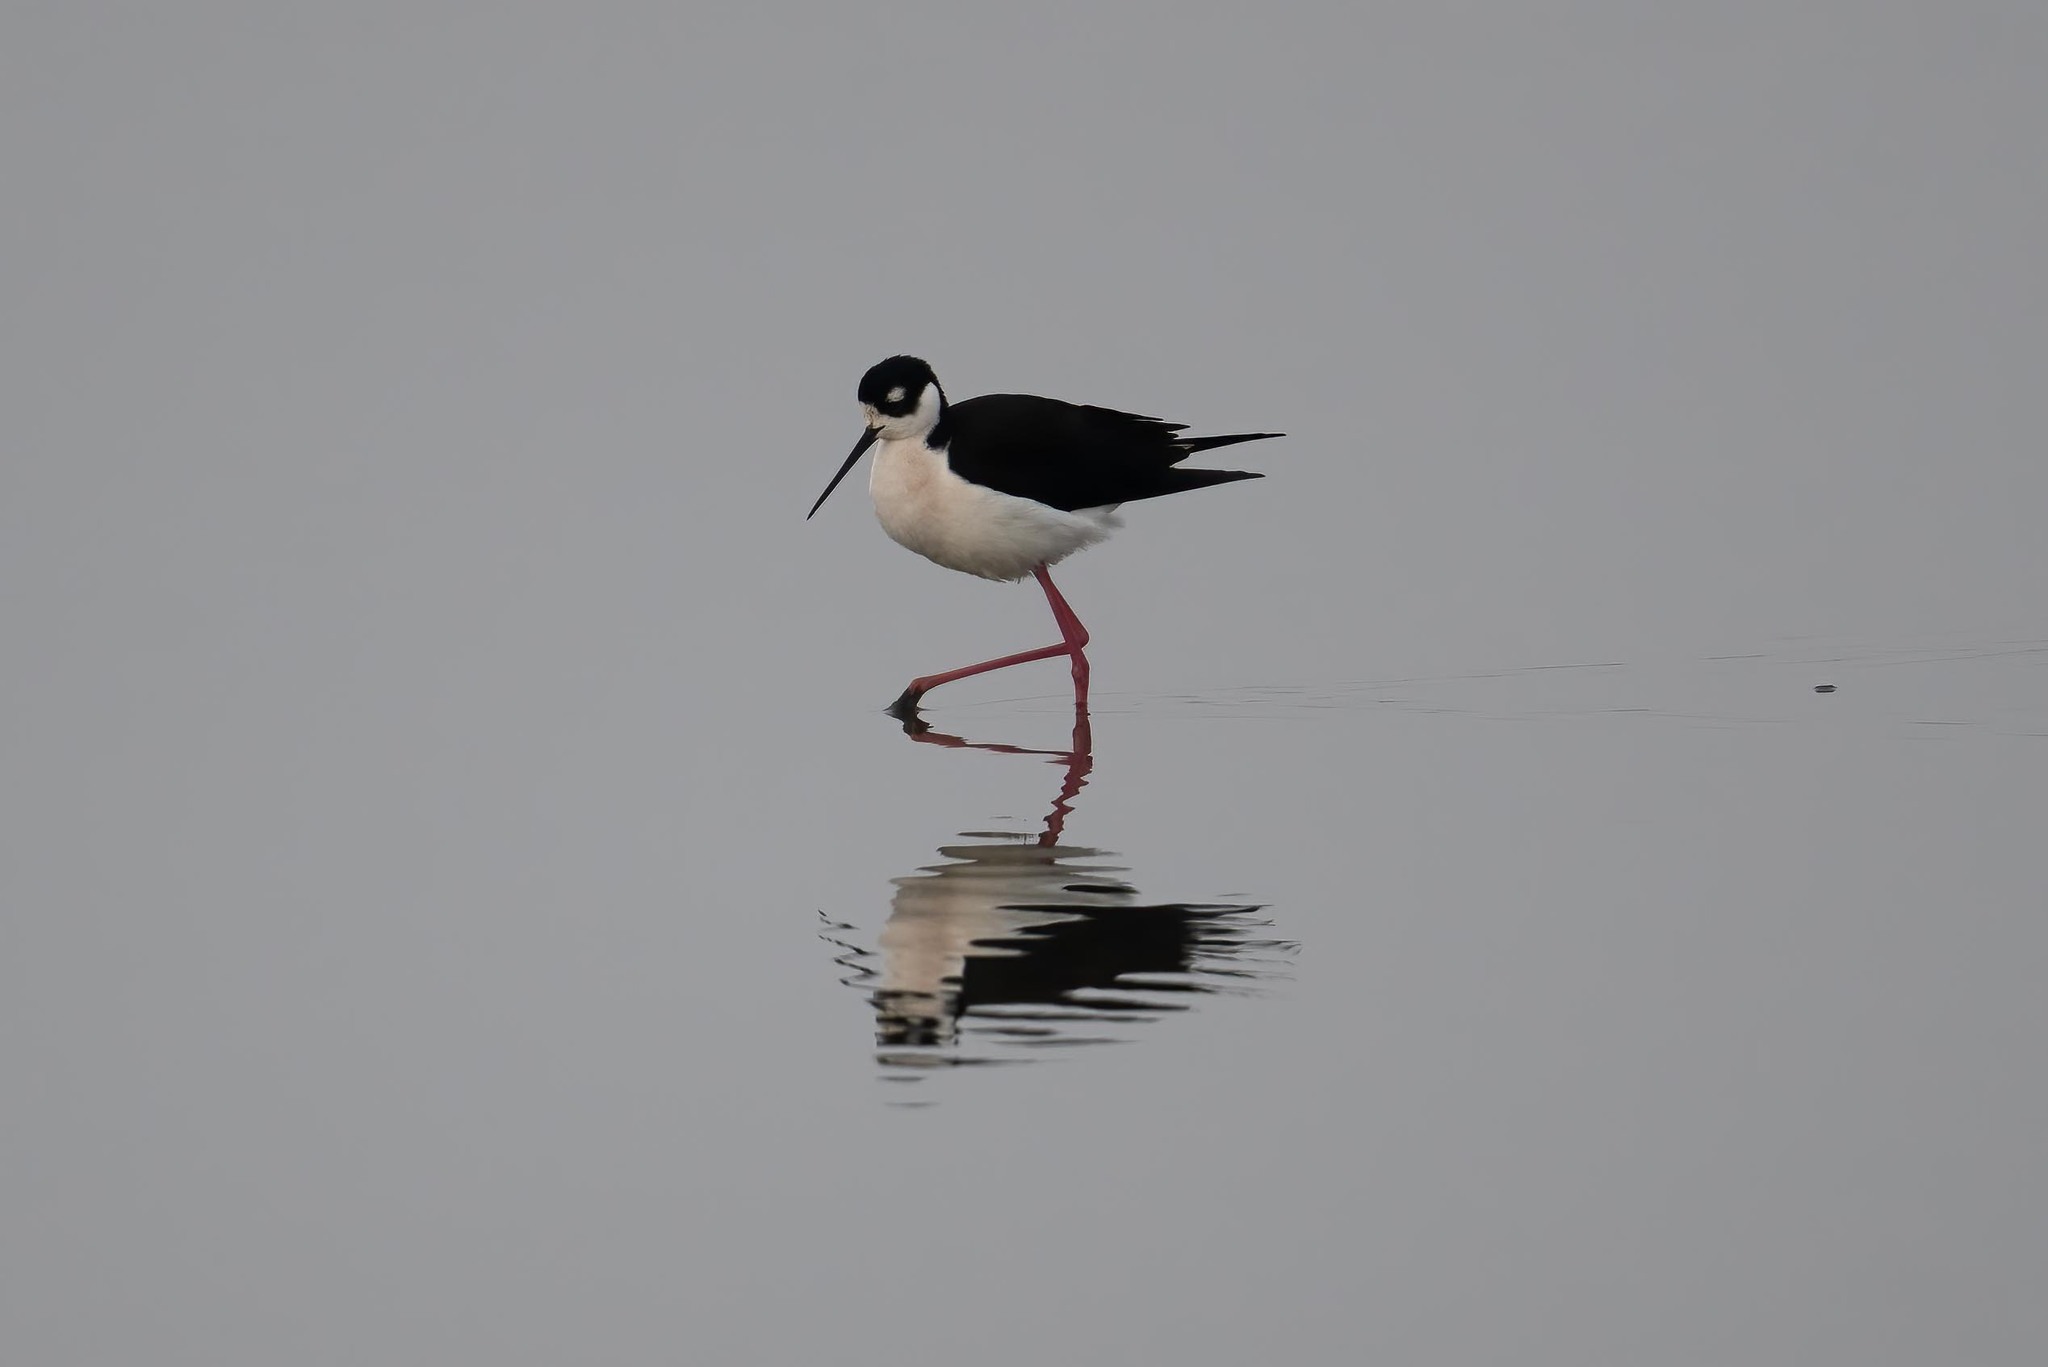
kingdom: Animalia
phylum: Chordata
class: Aves
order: Charadriiformes
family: Recurvirostridae
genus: Himantopus
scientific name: Himantopus mexicanus
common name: Black-necked stilt
